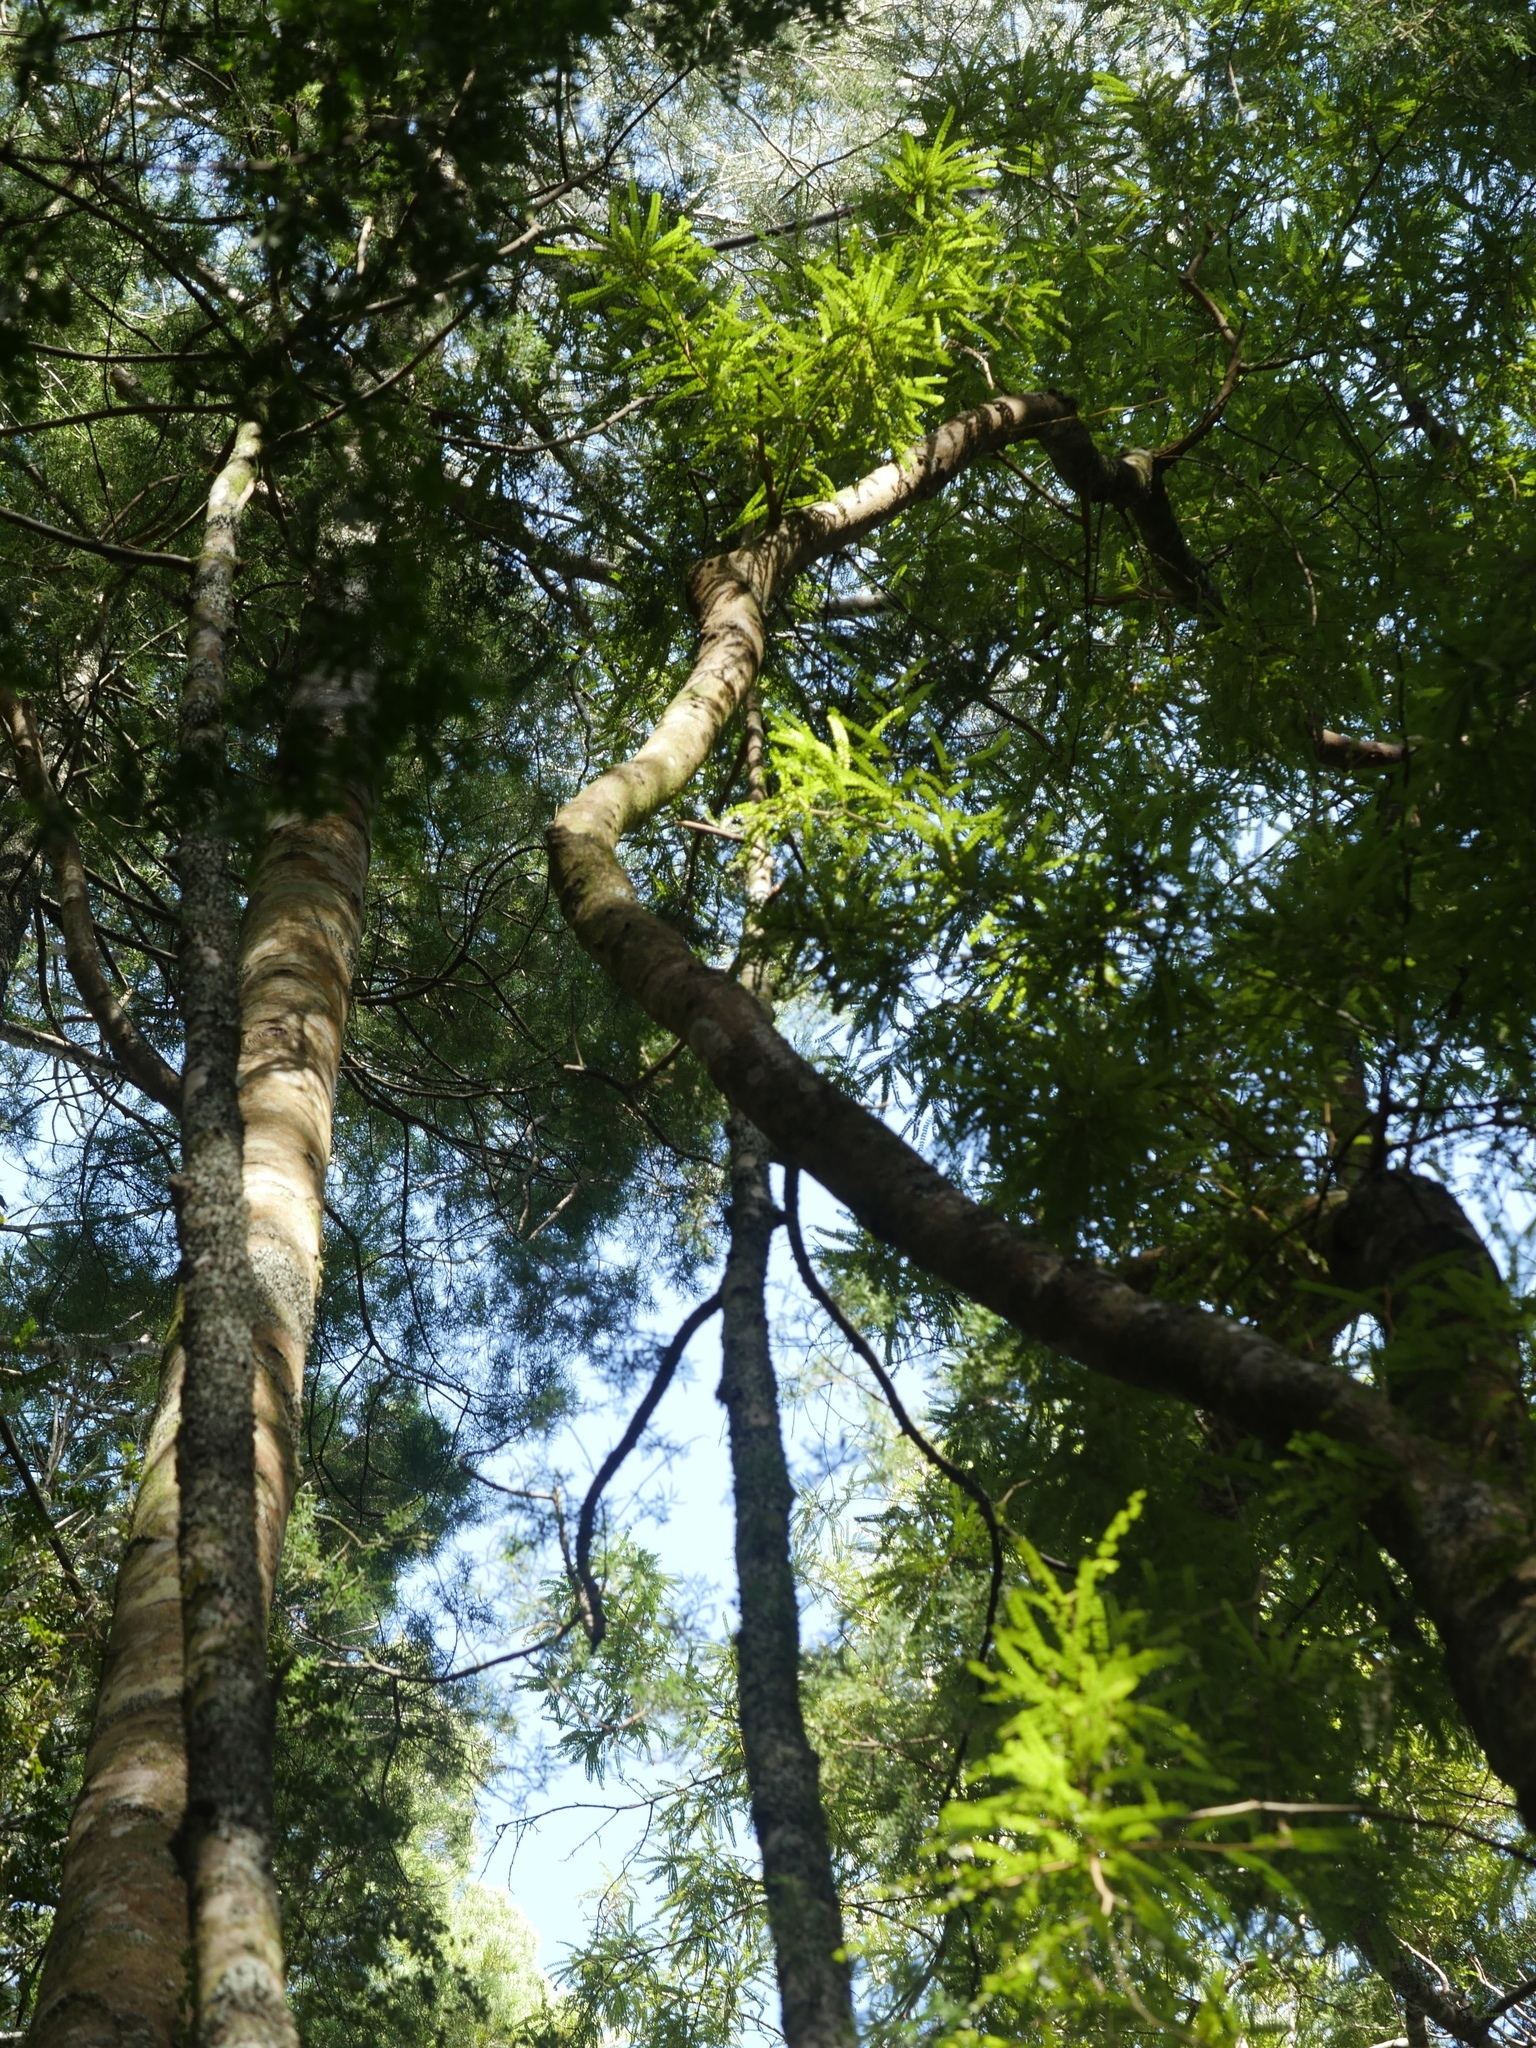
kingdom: Plantae
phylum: Tracheophyta
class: Magnoliopsida
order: Fabales
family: Fabaceae
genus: Sophora
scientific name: Sophora chathamica
